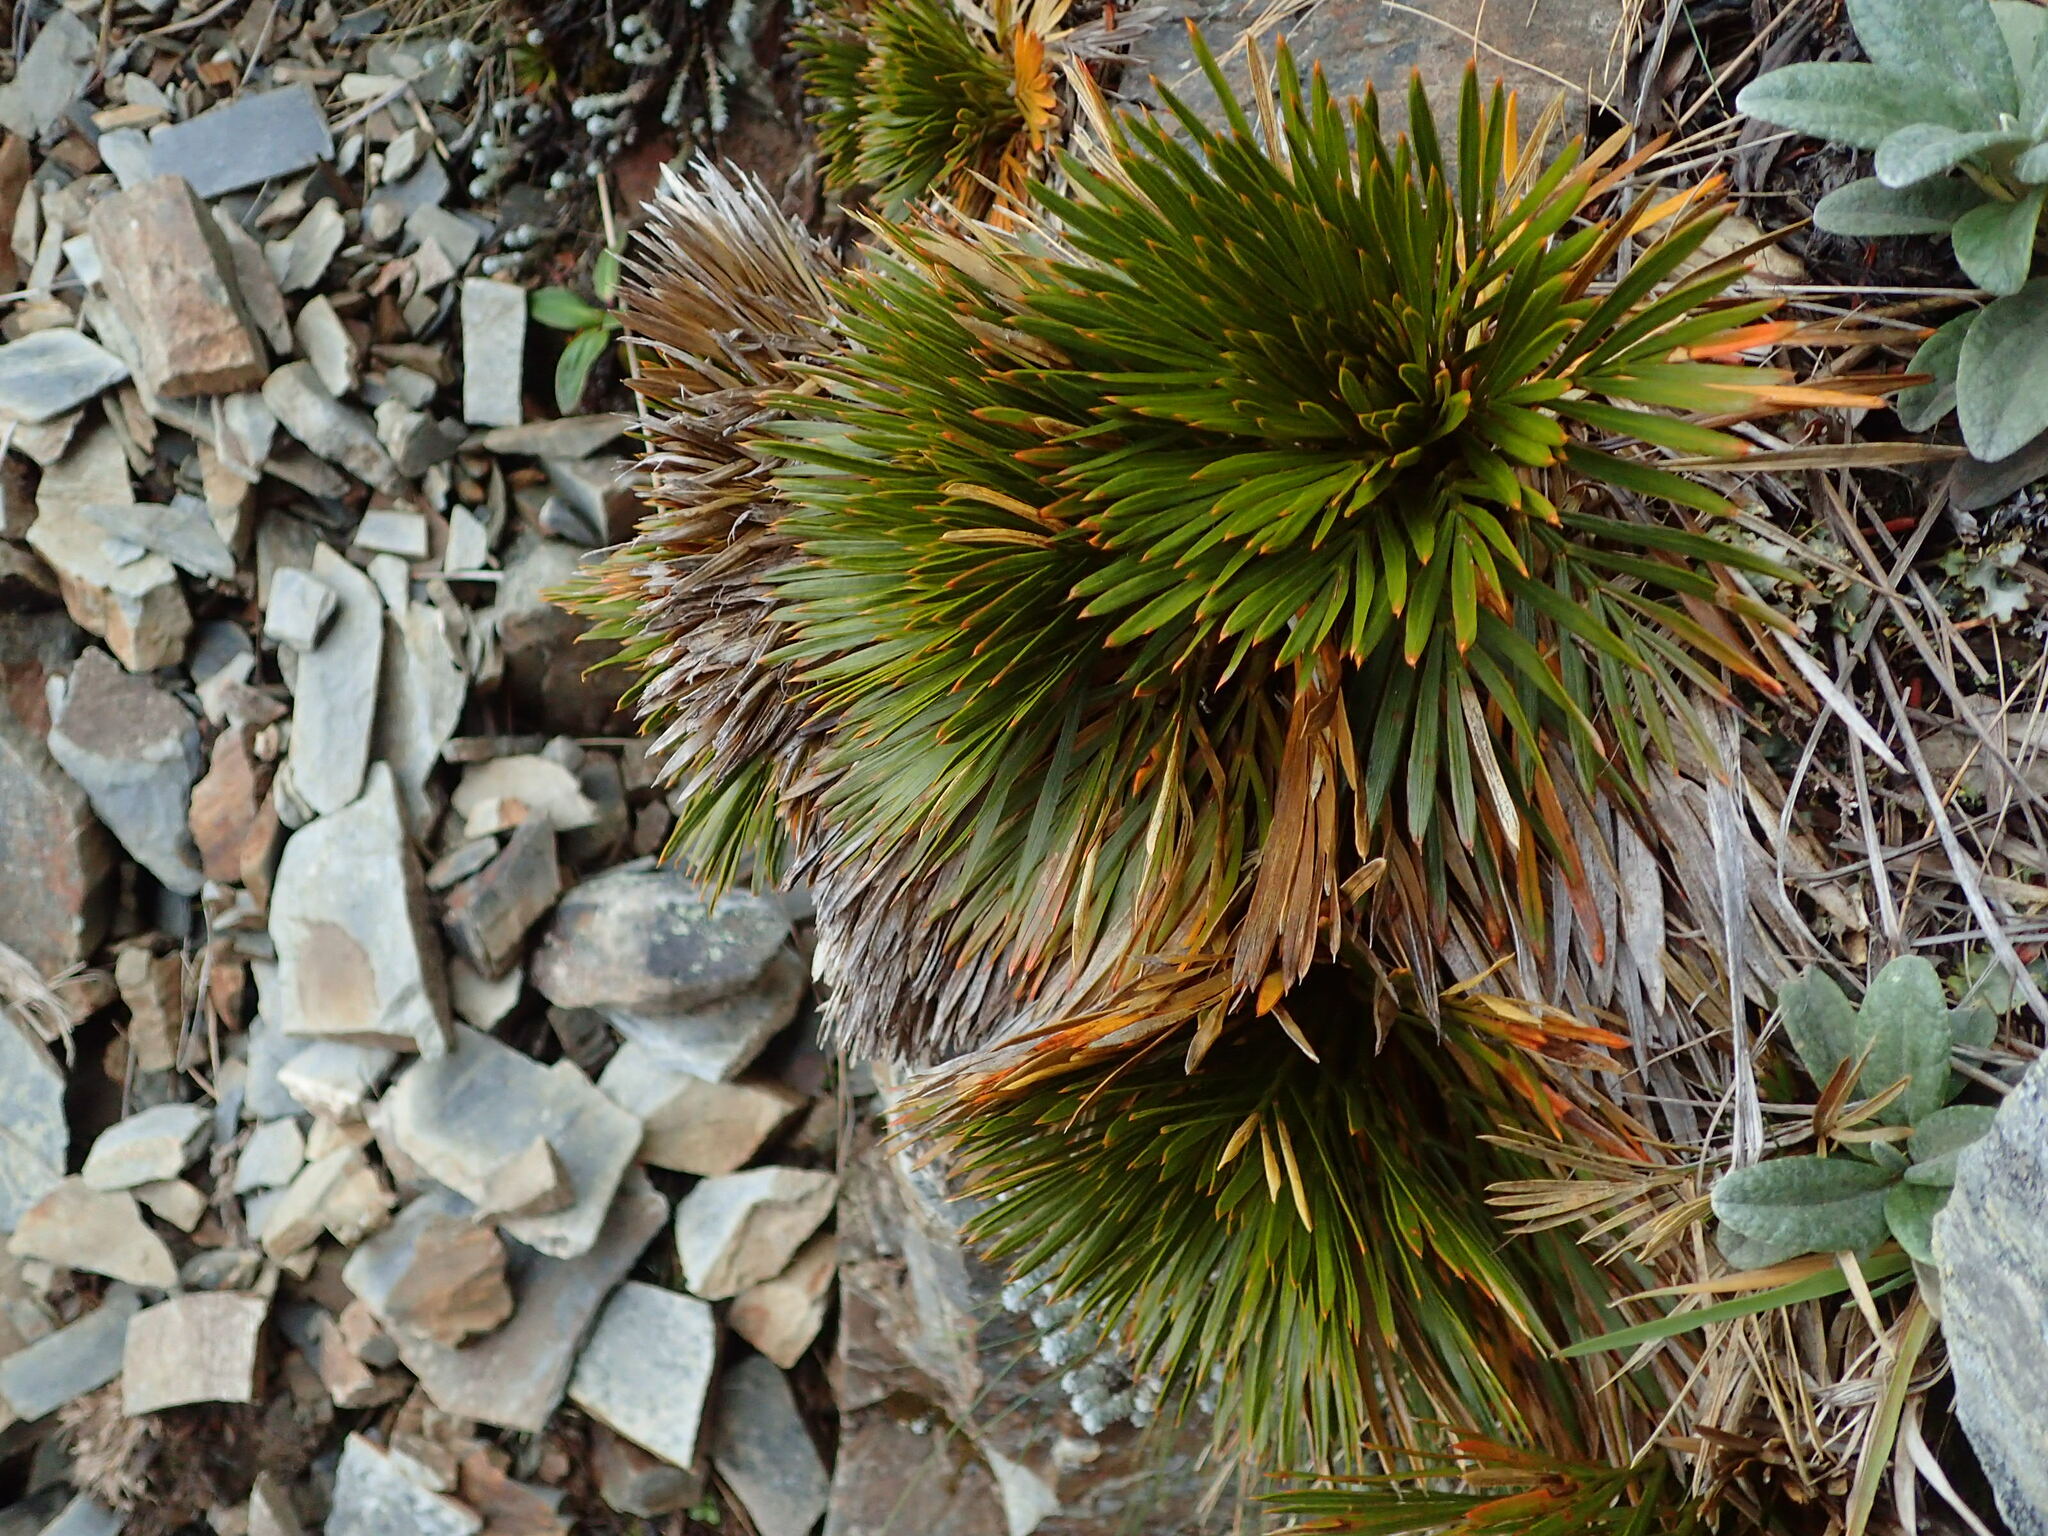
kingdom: Plantae
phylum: Tracheophyta
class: Magnoliopsida
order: Apiales
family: Apiaceae
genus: Aciphylla
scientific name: Aciphylla lecomtei
